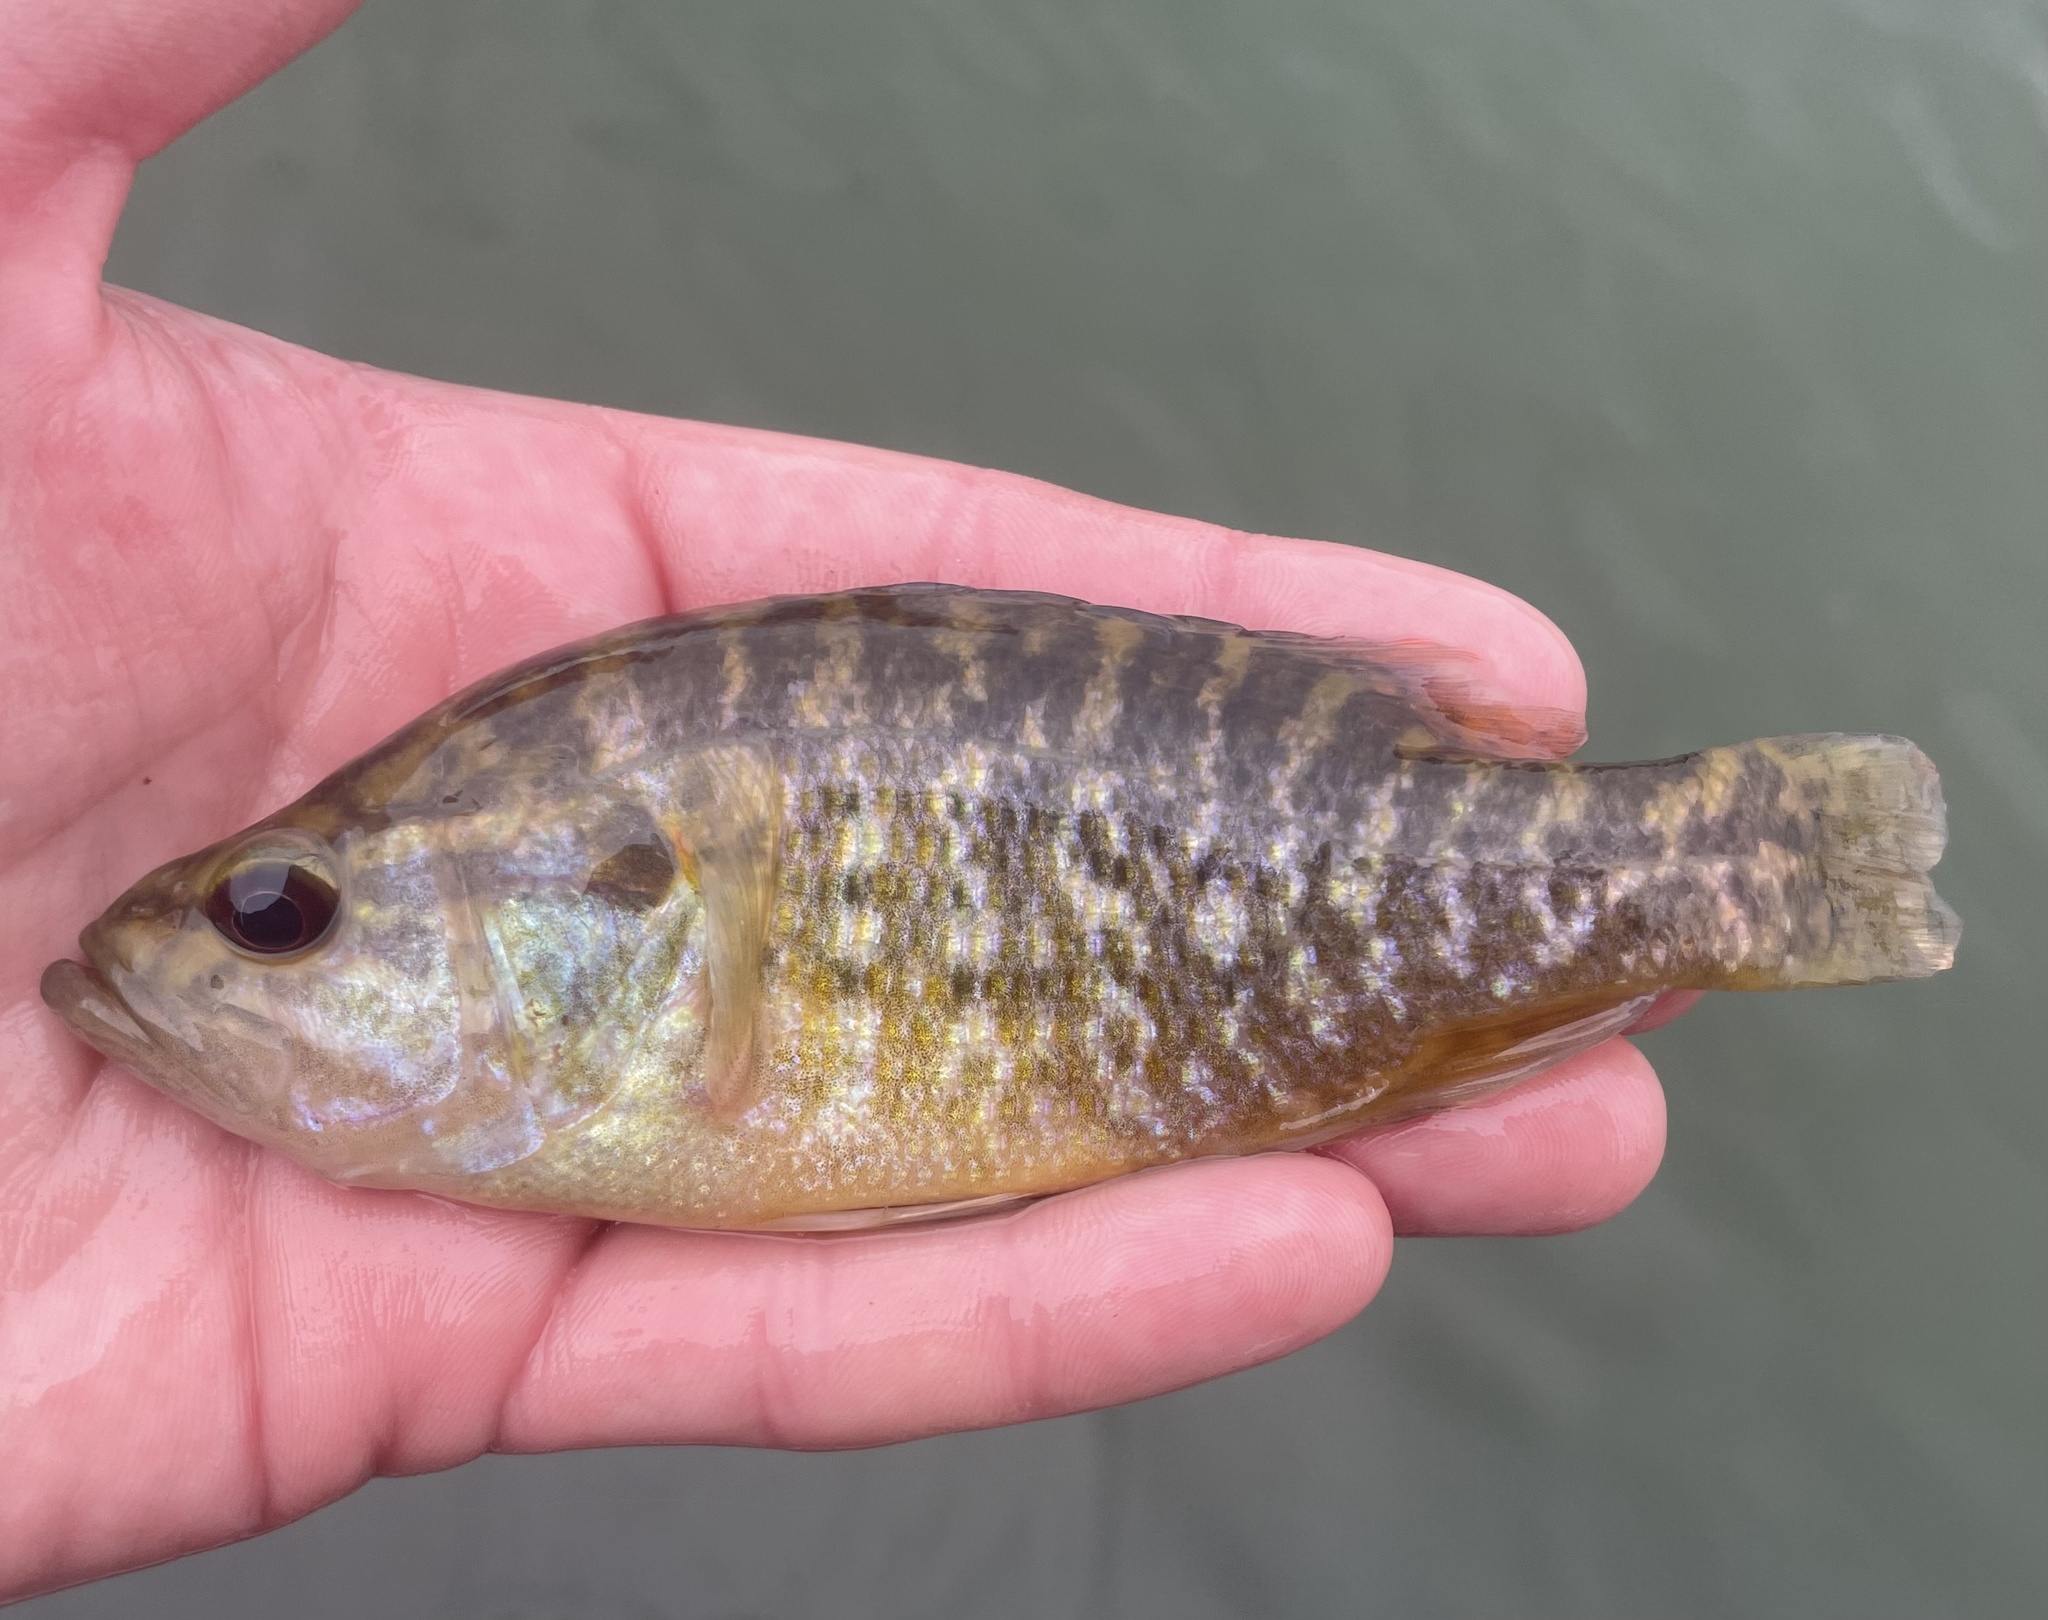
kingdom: Animalia
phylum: Chordata
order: Perciformes
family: Centrarchidae
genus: Lepomis
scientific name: Lepomis gulosus
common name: Warmouth
